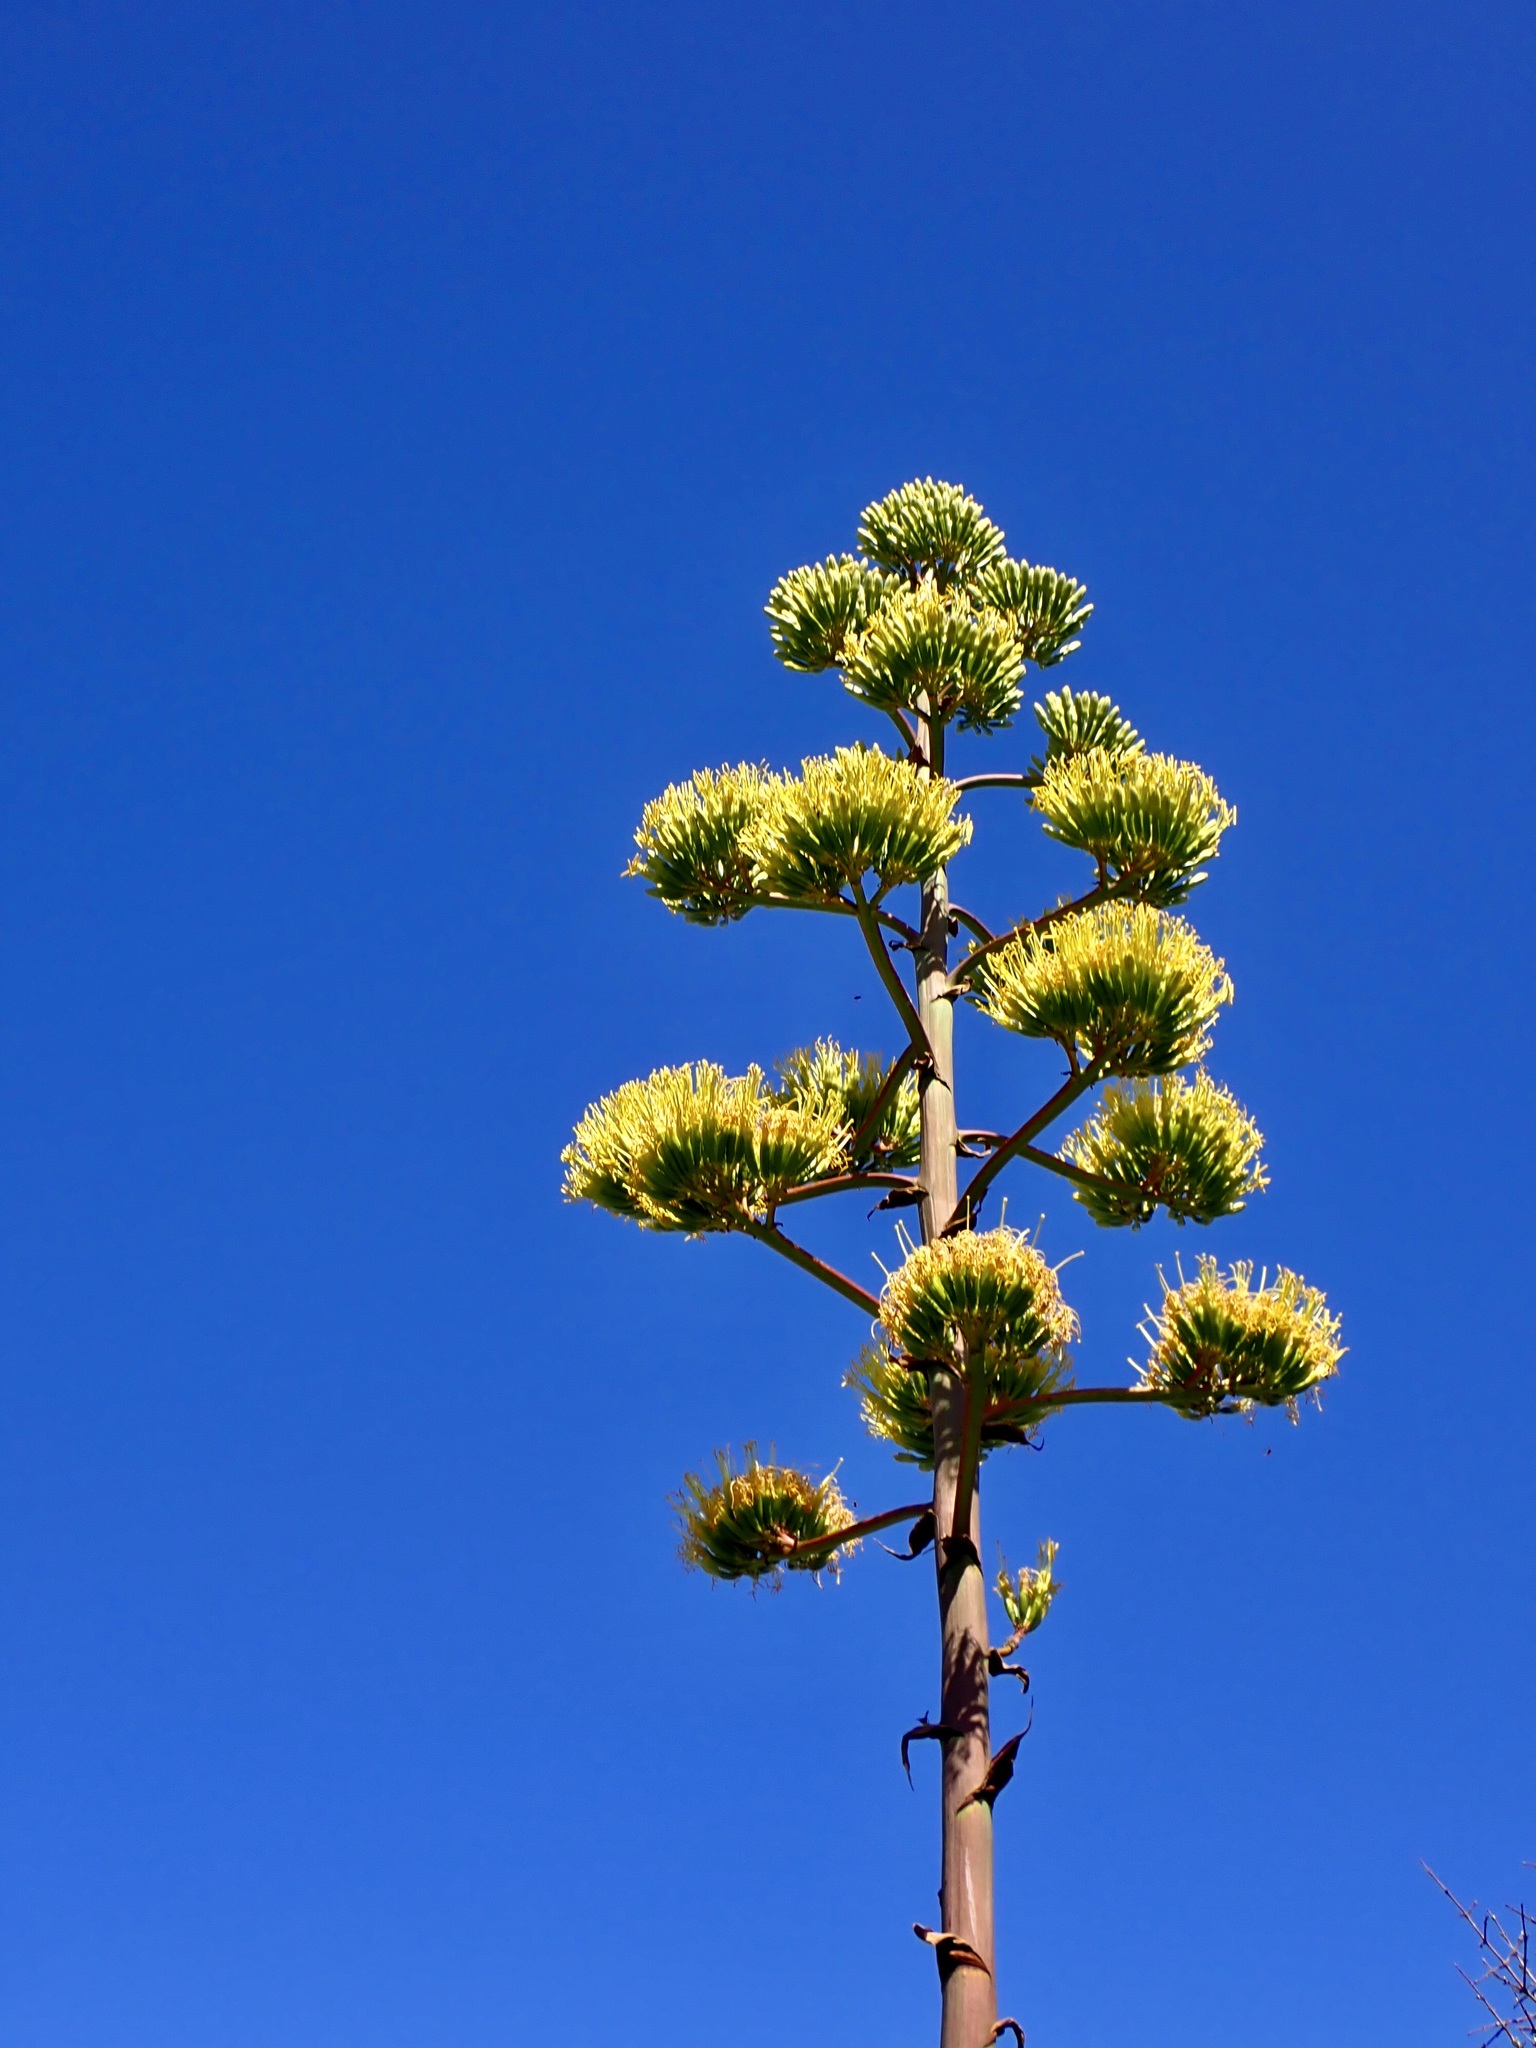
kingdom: Plantae
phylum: Tracheophyta
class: Liliopsida
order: Asparagales
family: Asparagaceae
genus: Agave
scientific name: Agave americana
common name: Centuryplant
